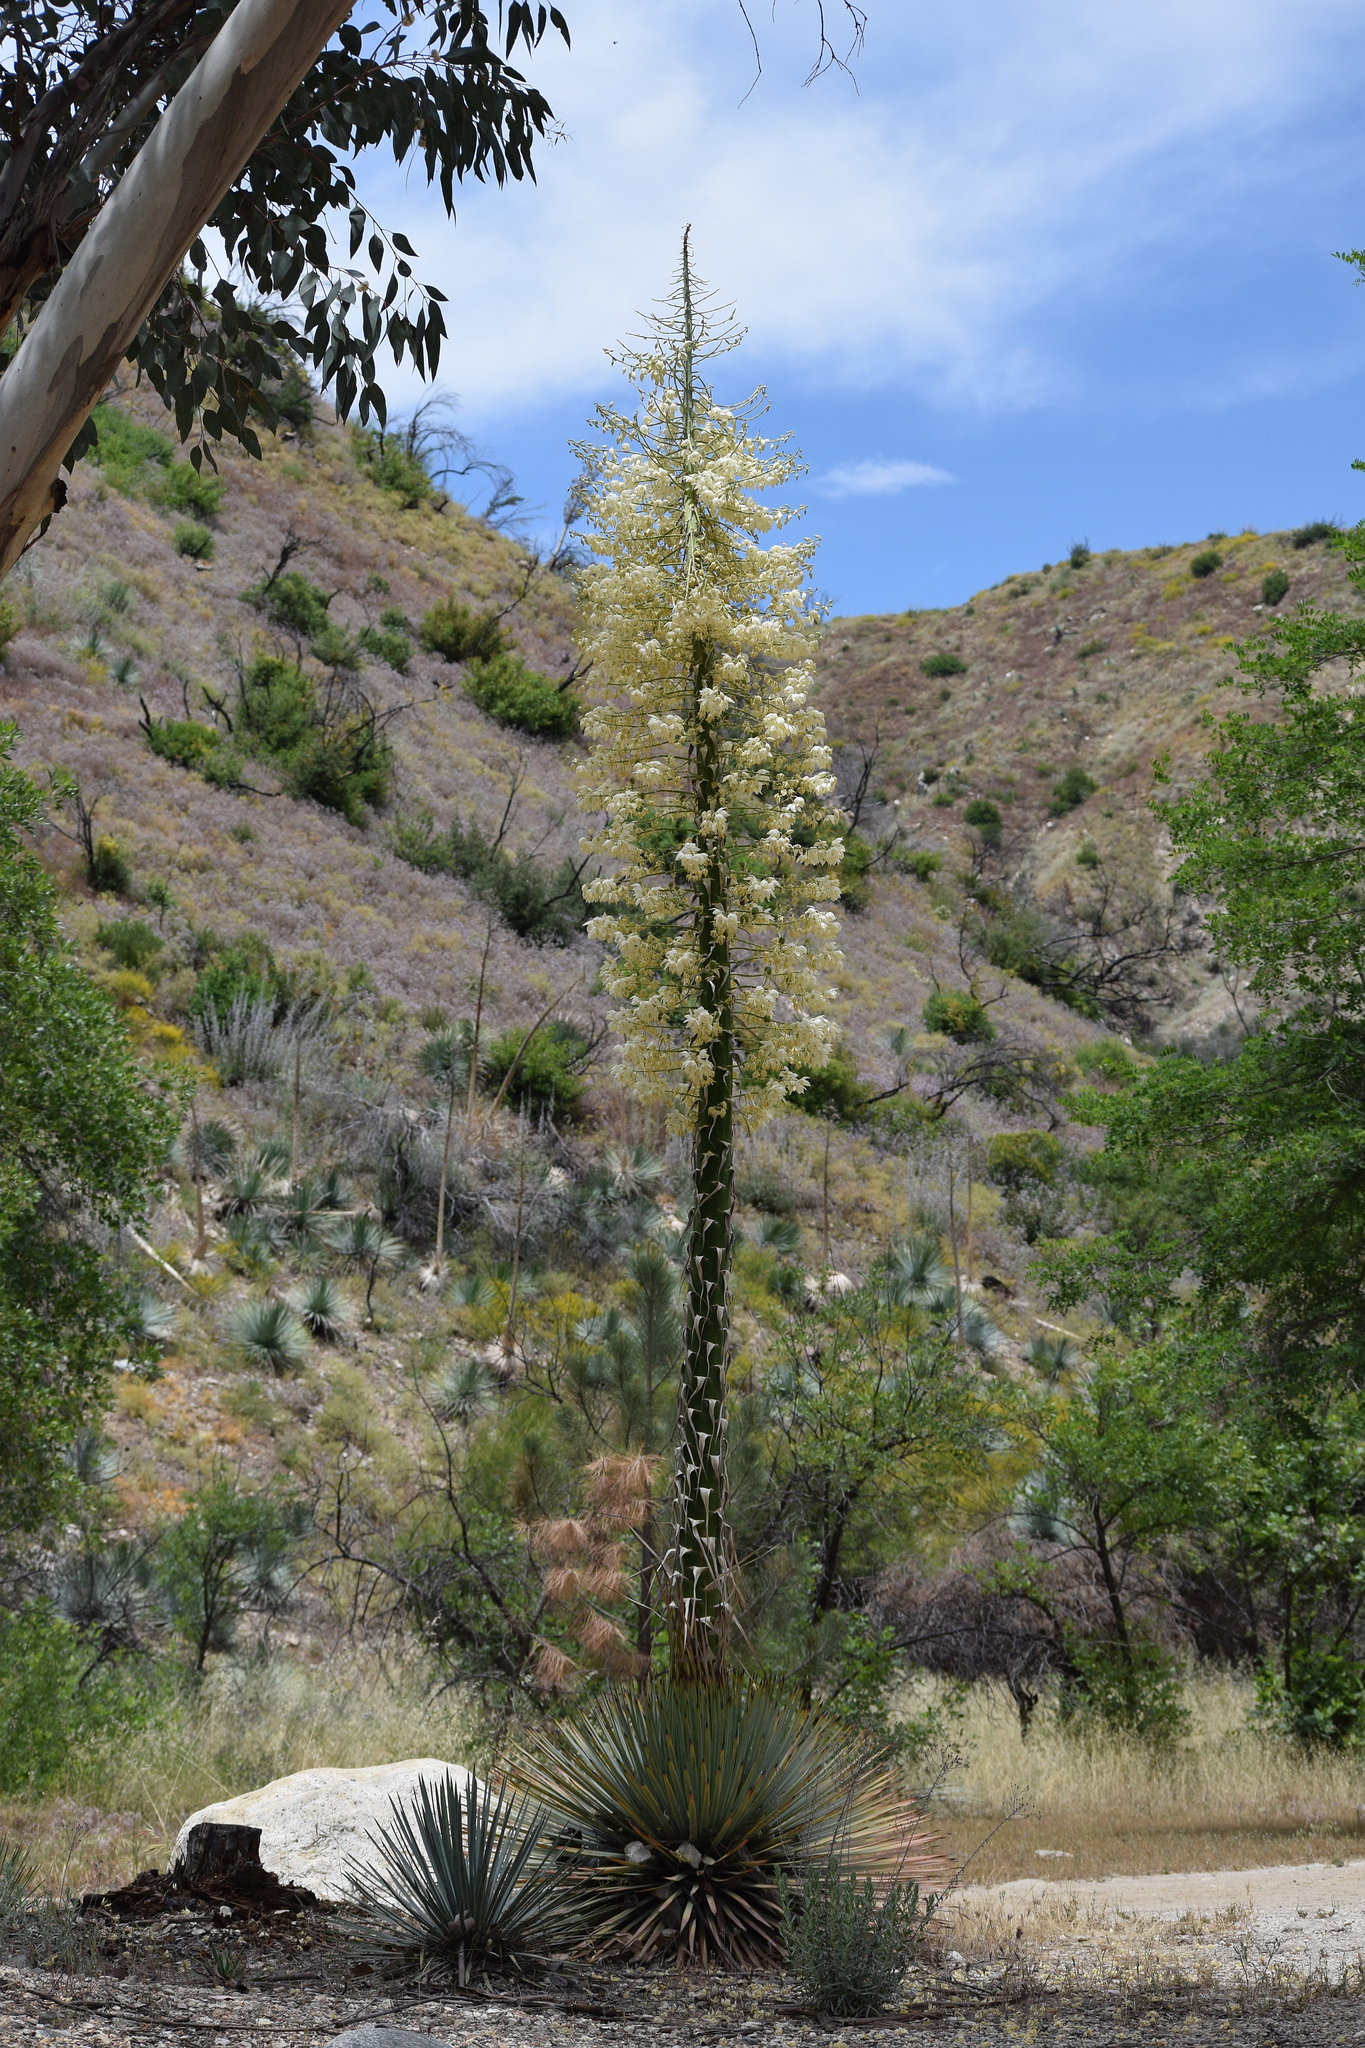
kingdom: Plantae
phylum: Tracheophyta
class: Liliopsida
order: Asparagales
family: Asparagaceae
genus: Hesperoyucca
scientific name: Hesperoyucca whipplei
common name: Our lord's-candle
